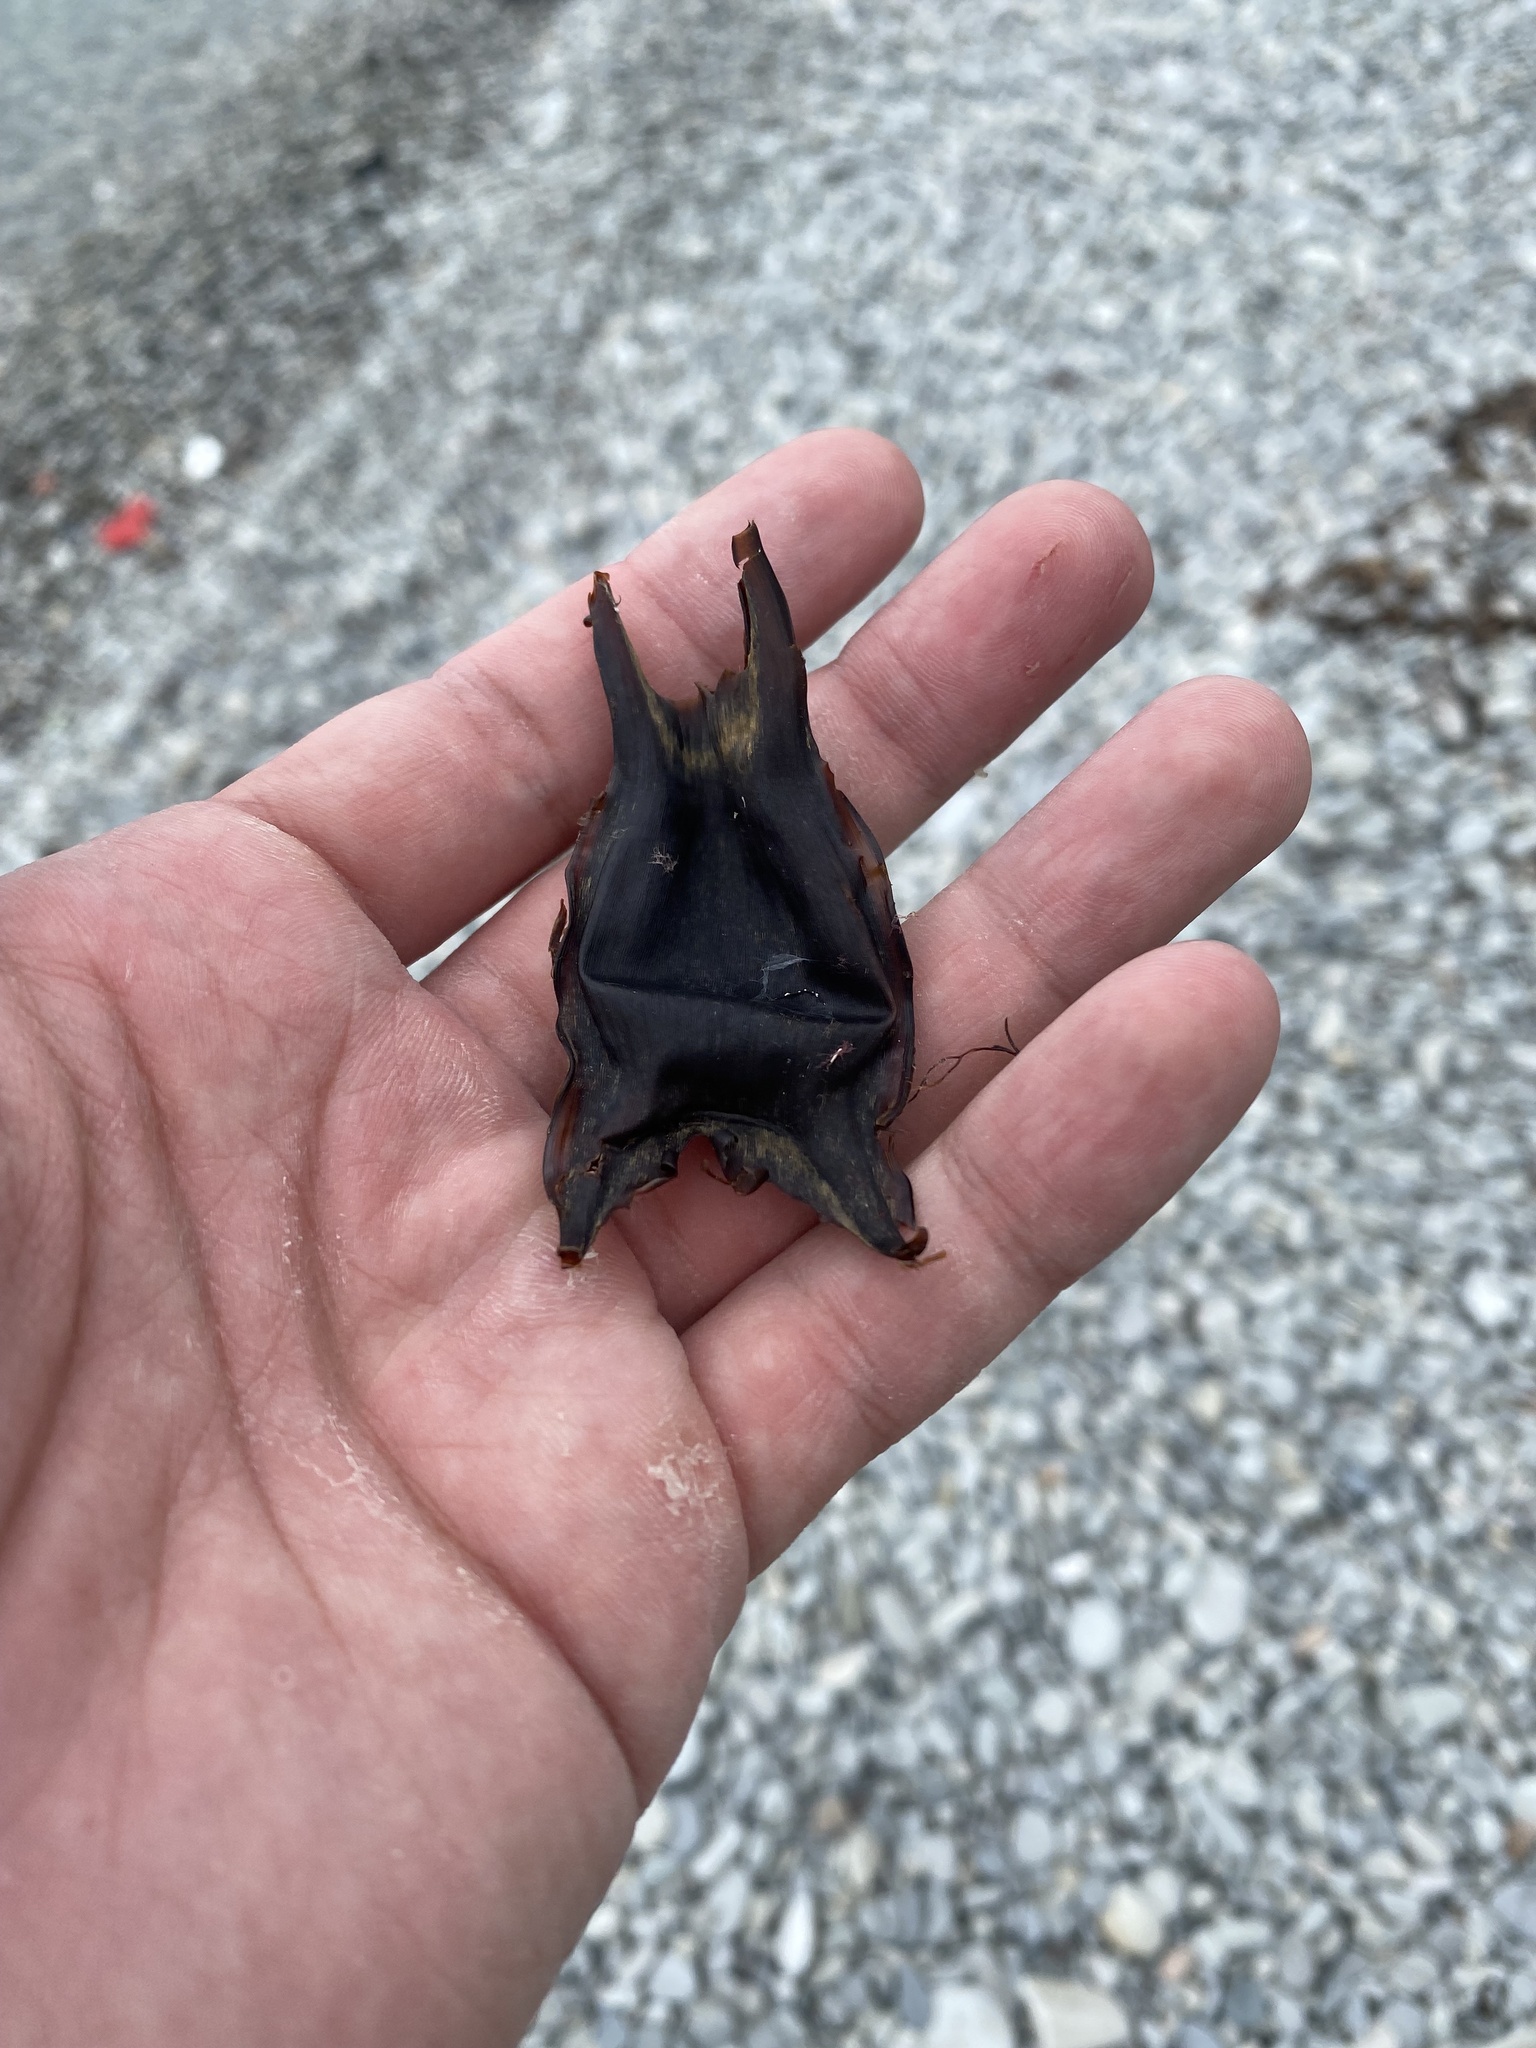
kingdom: Animalia
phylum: Chordata
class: Elasmobranchii
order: Rajiformes
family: Rajidae
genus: Raja
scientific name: Raja clavata
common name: Thornback ray
